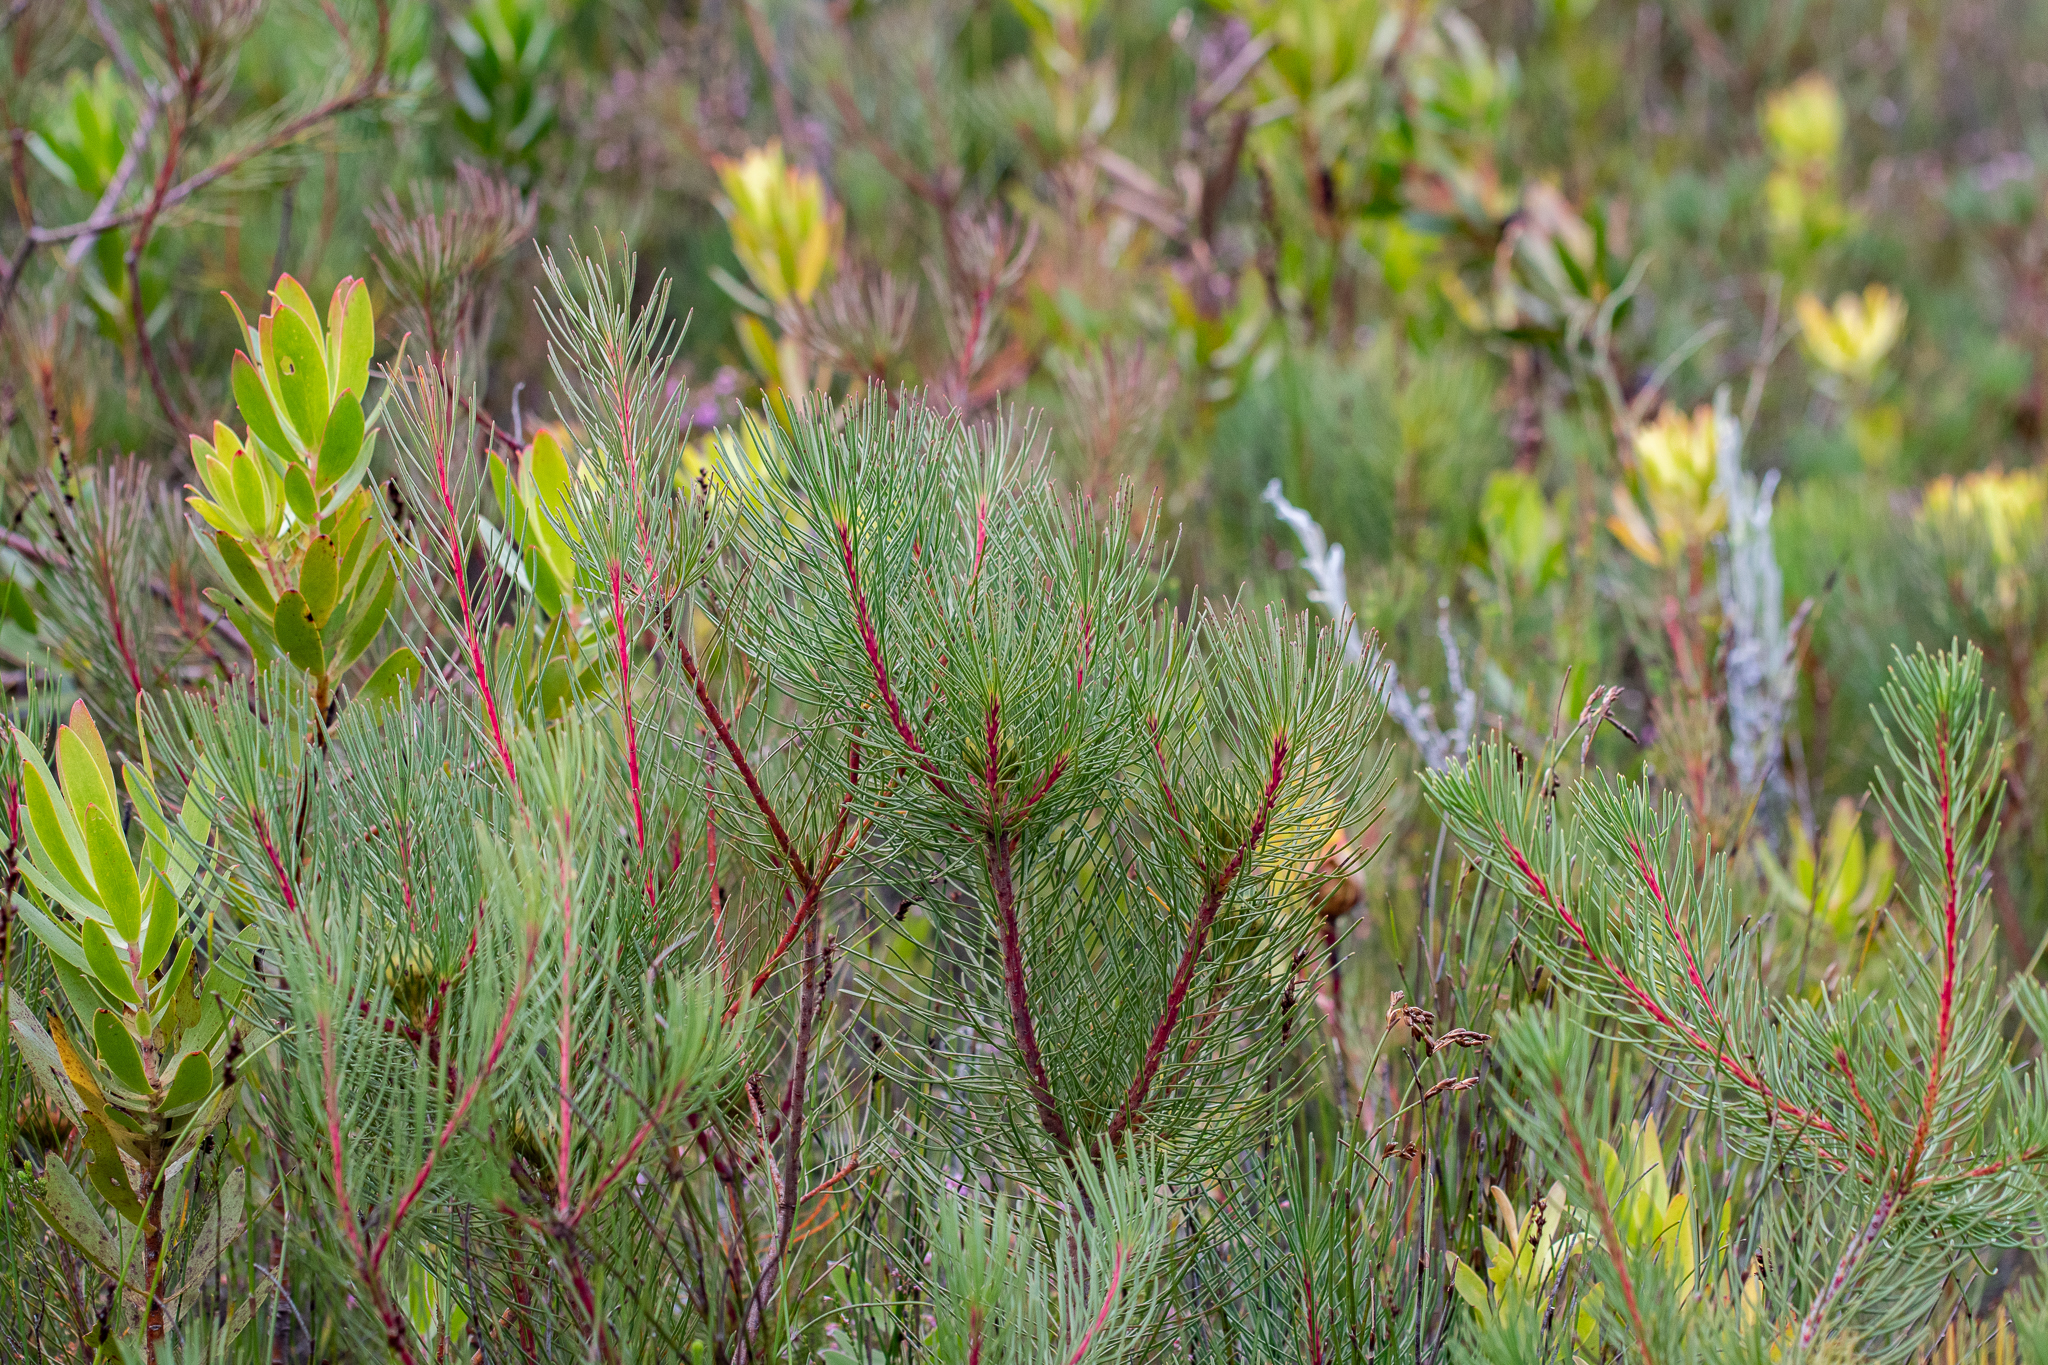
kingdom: Plantae
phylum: Tracheophyta
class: Magnoliopsida
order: Proteales
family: Proteaceae
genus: Aulax
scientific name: Aulax cancellata
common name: Channel-leaf featherbush
